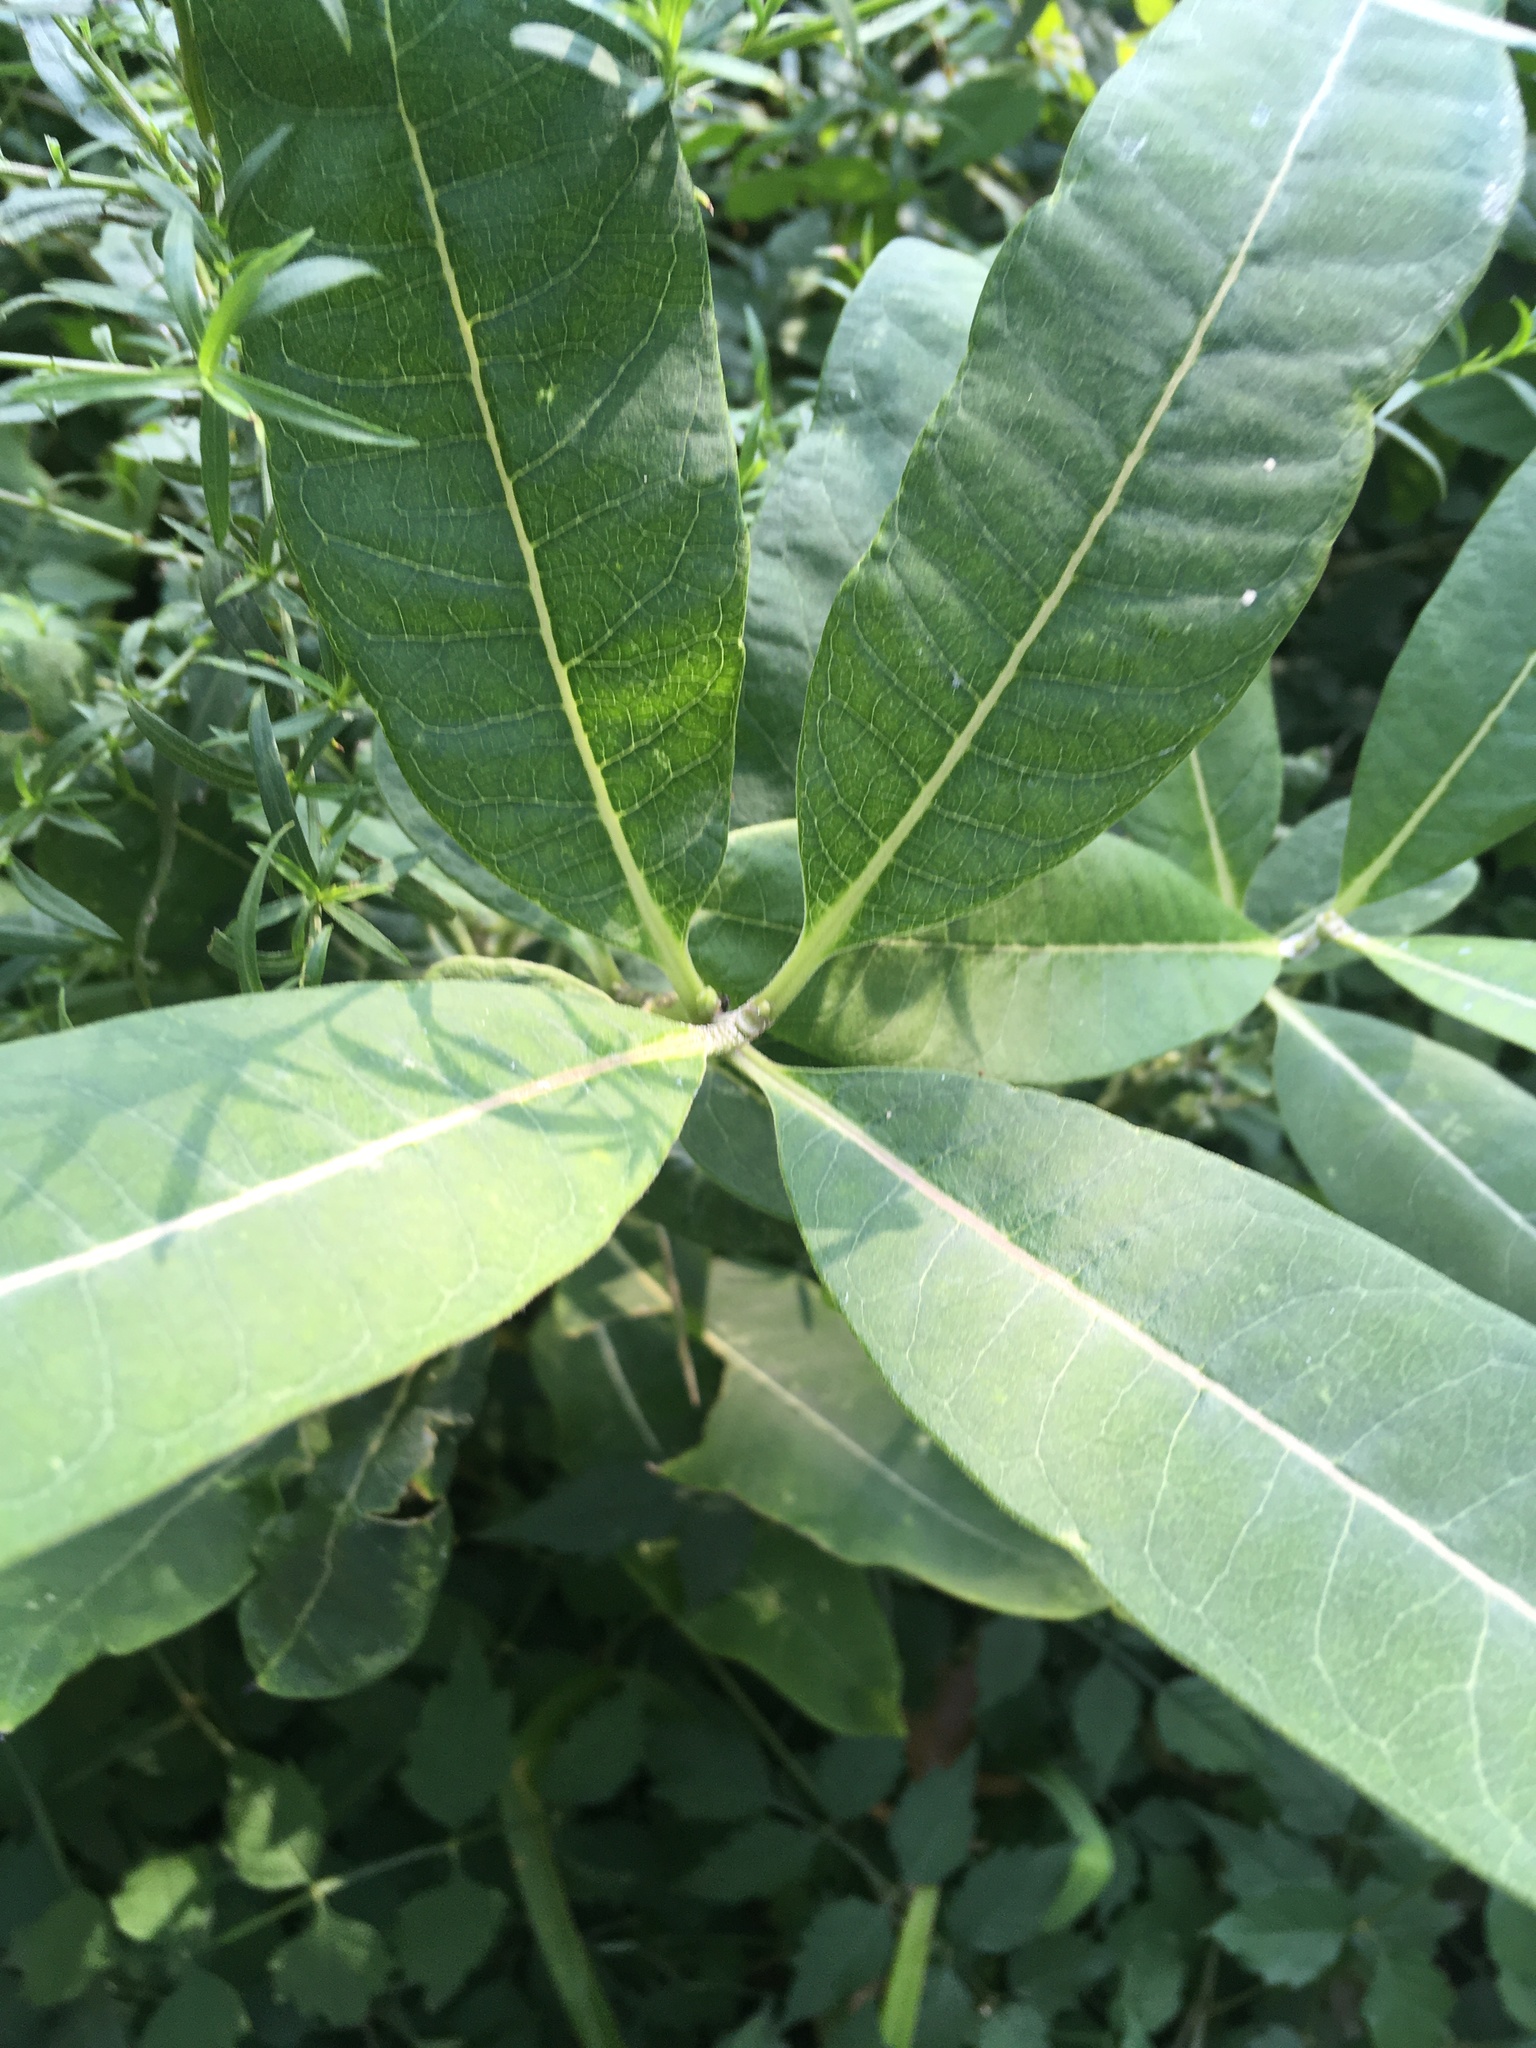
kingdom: Plantae
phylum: Tracheophyta
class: Magnoliopsida
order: Gentianales
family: Apocynaceae
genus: Asclepias
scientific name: Asclepias syriaca
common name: Common milkweed
